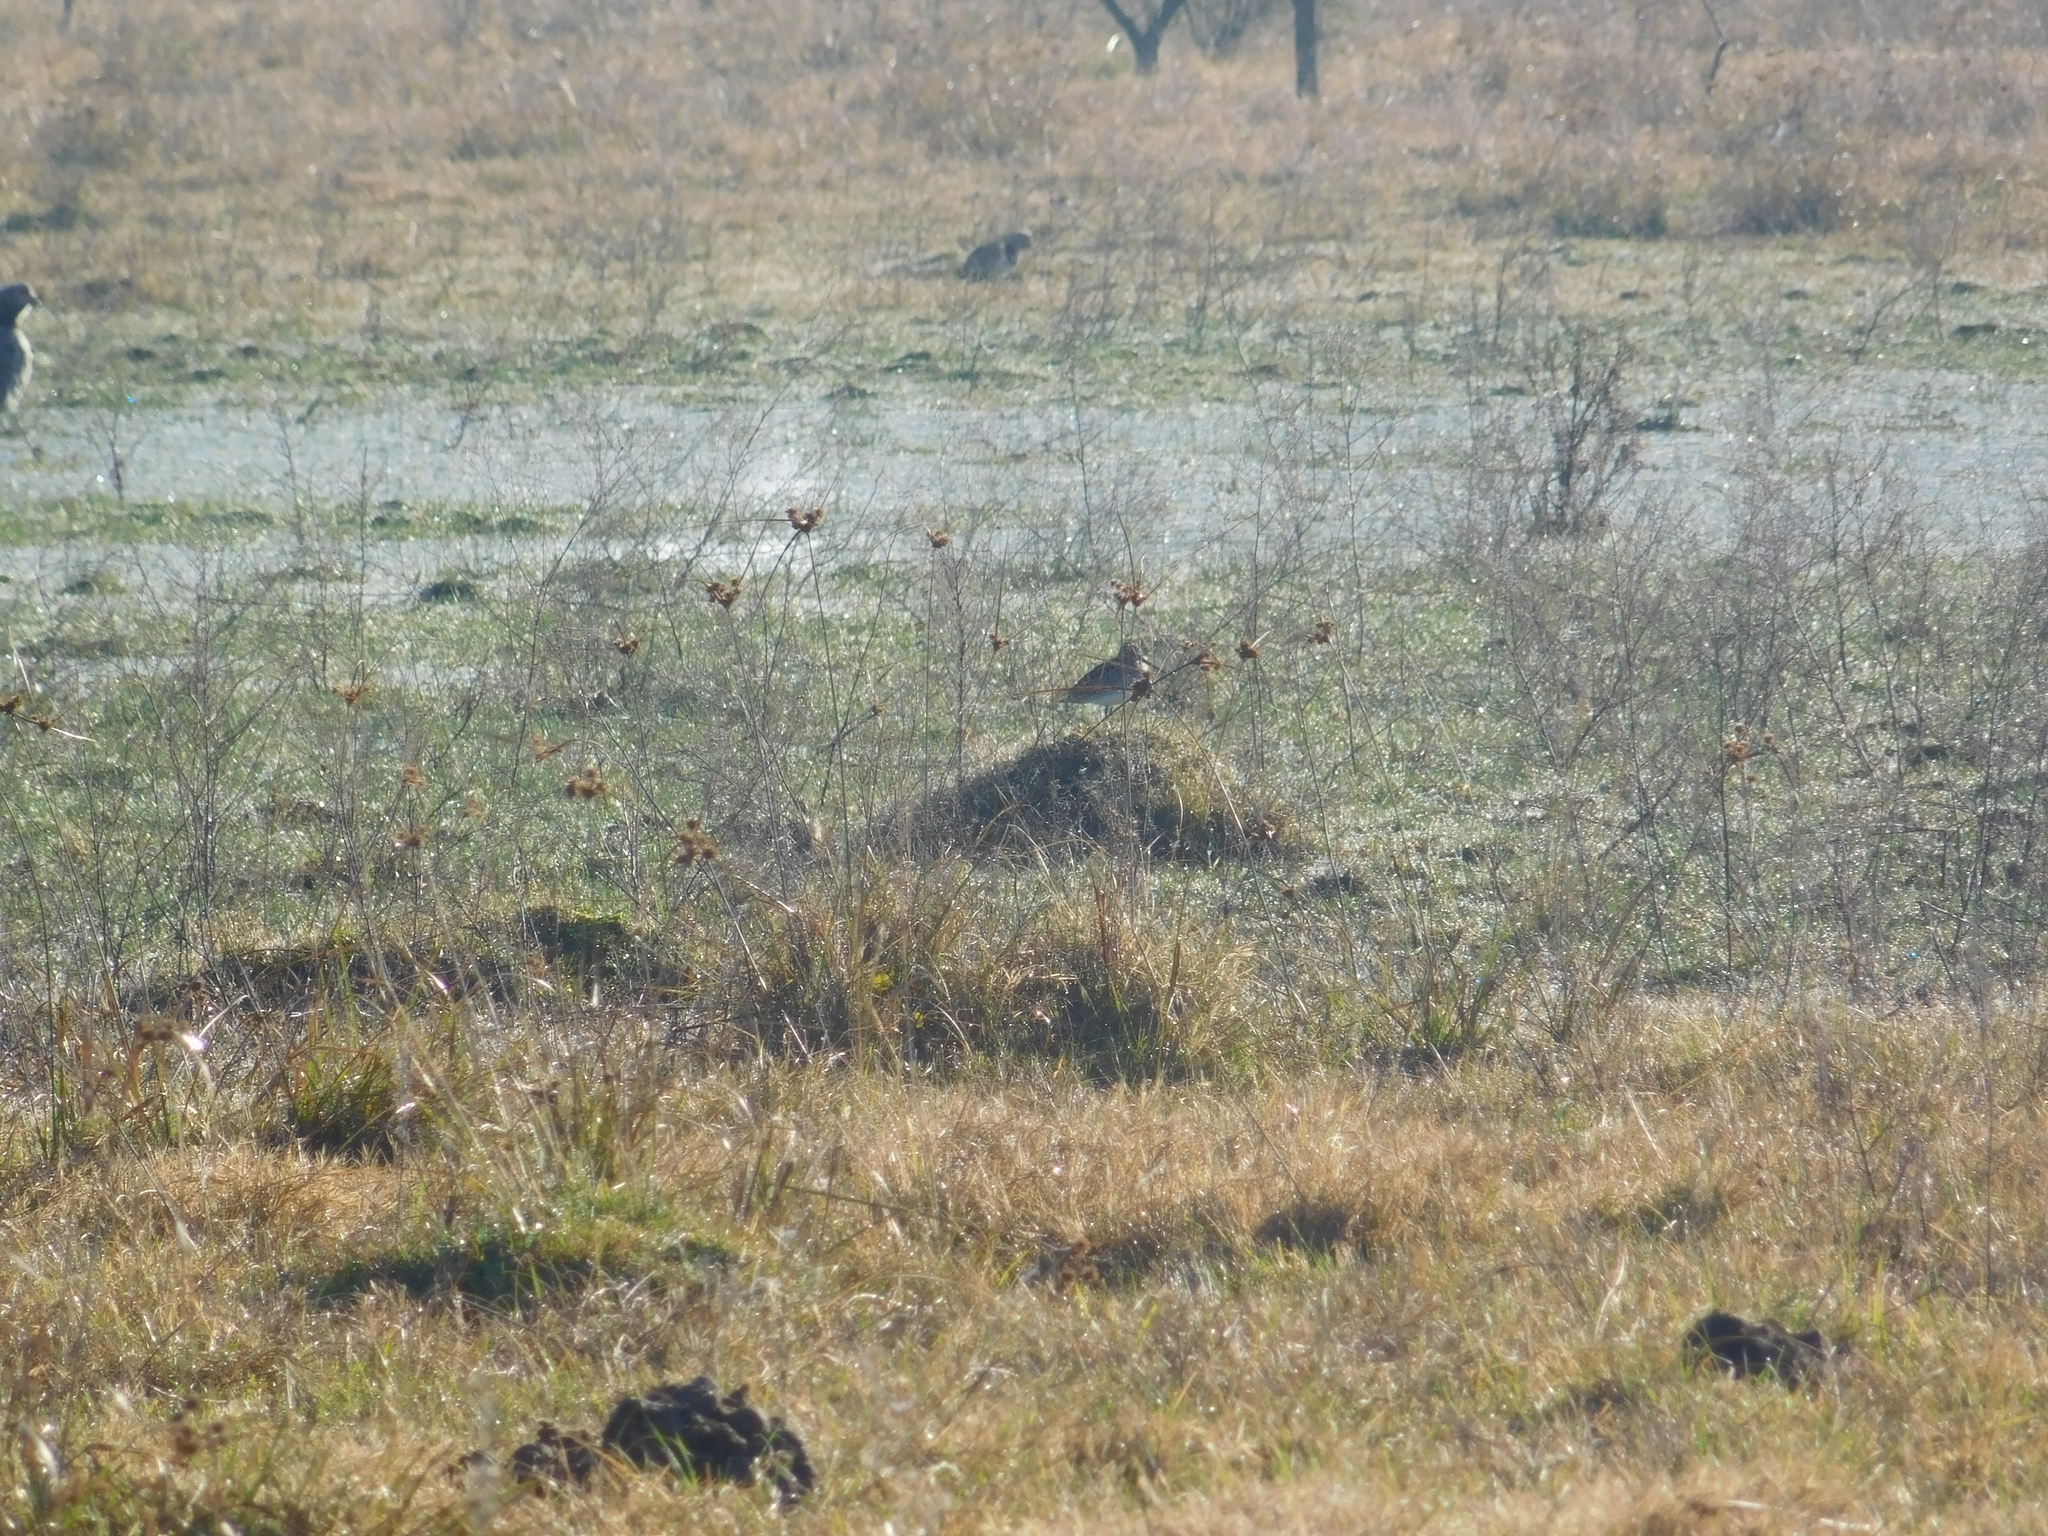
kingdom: Animalia
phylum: Chordata
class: Aves
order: Charadriiformes
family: Scolopacidae
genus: Gallinago
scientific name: Gallinago paraguaiae
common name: South american snipe
